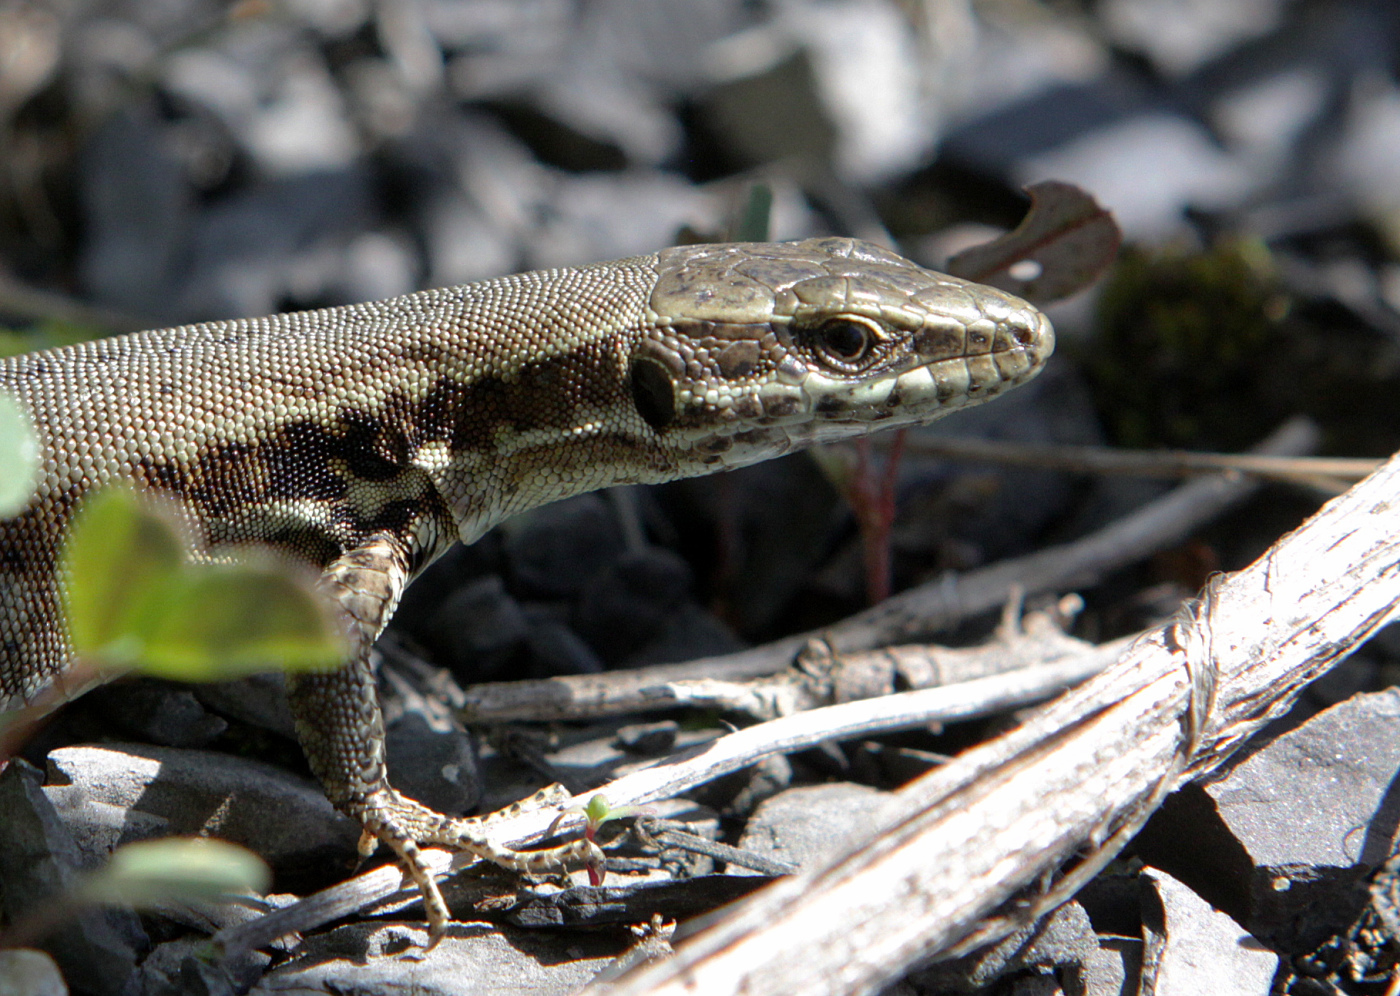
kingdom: Animalia
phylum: Chordata
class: Squamata
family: Lacertidae
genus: Podarcis
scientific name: Podarcis muralis
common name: Common wall lizard
